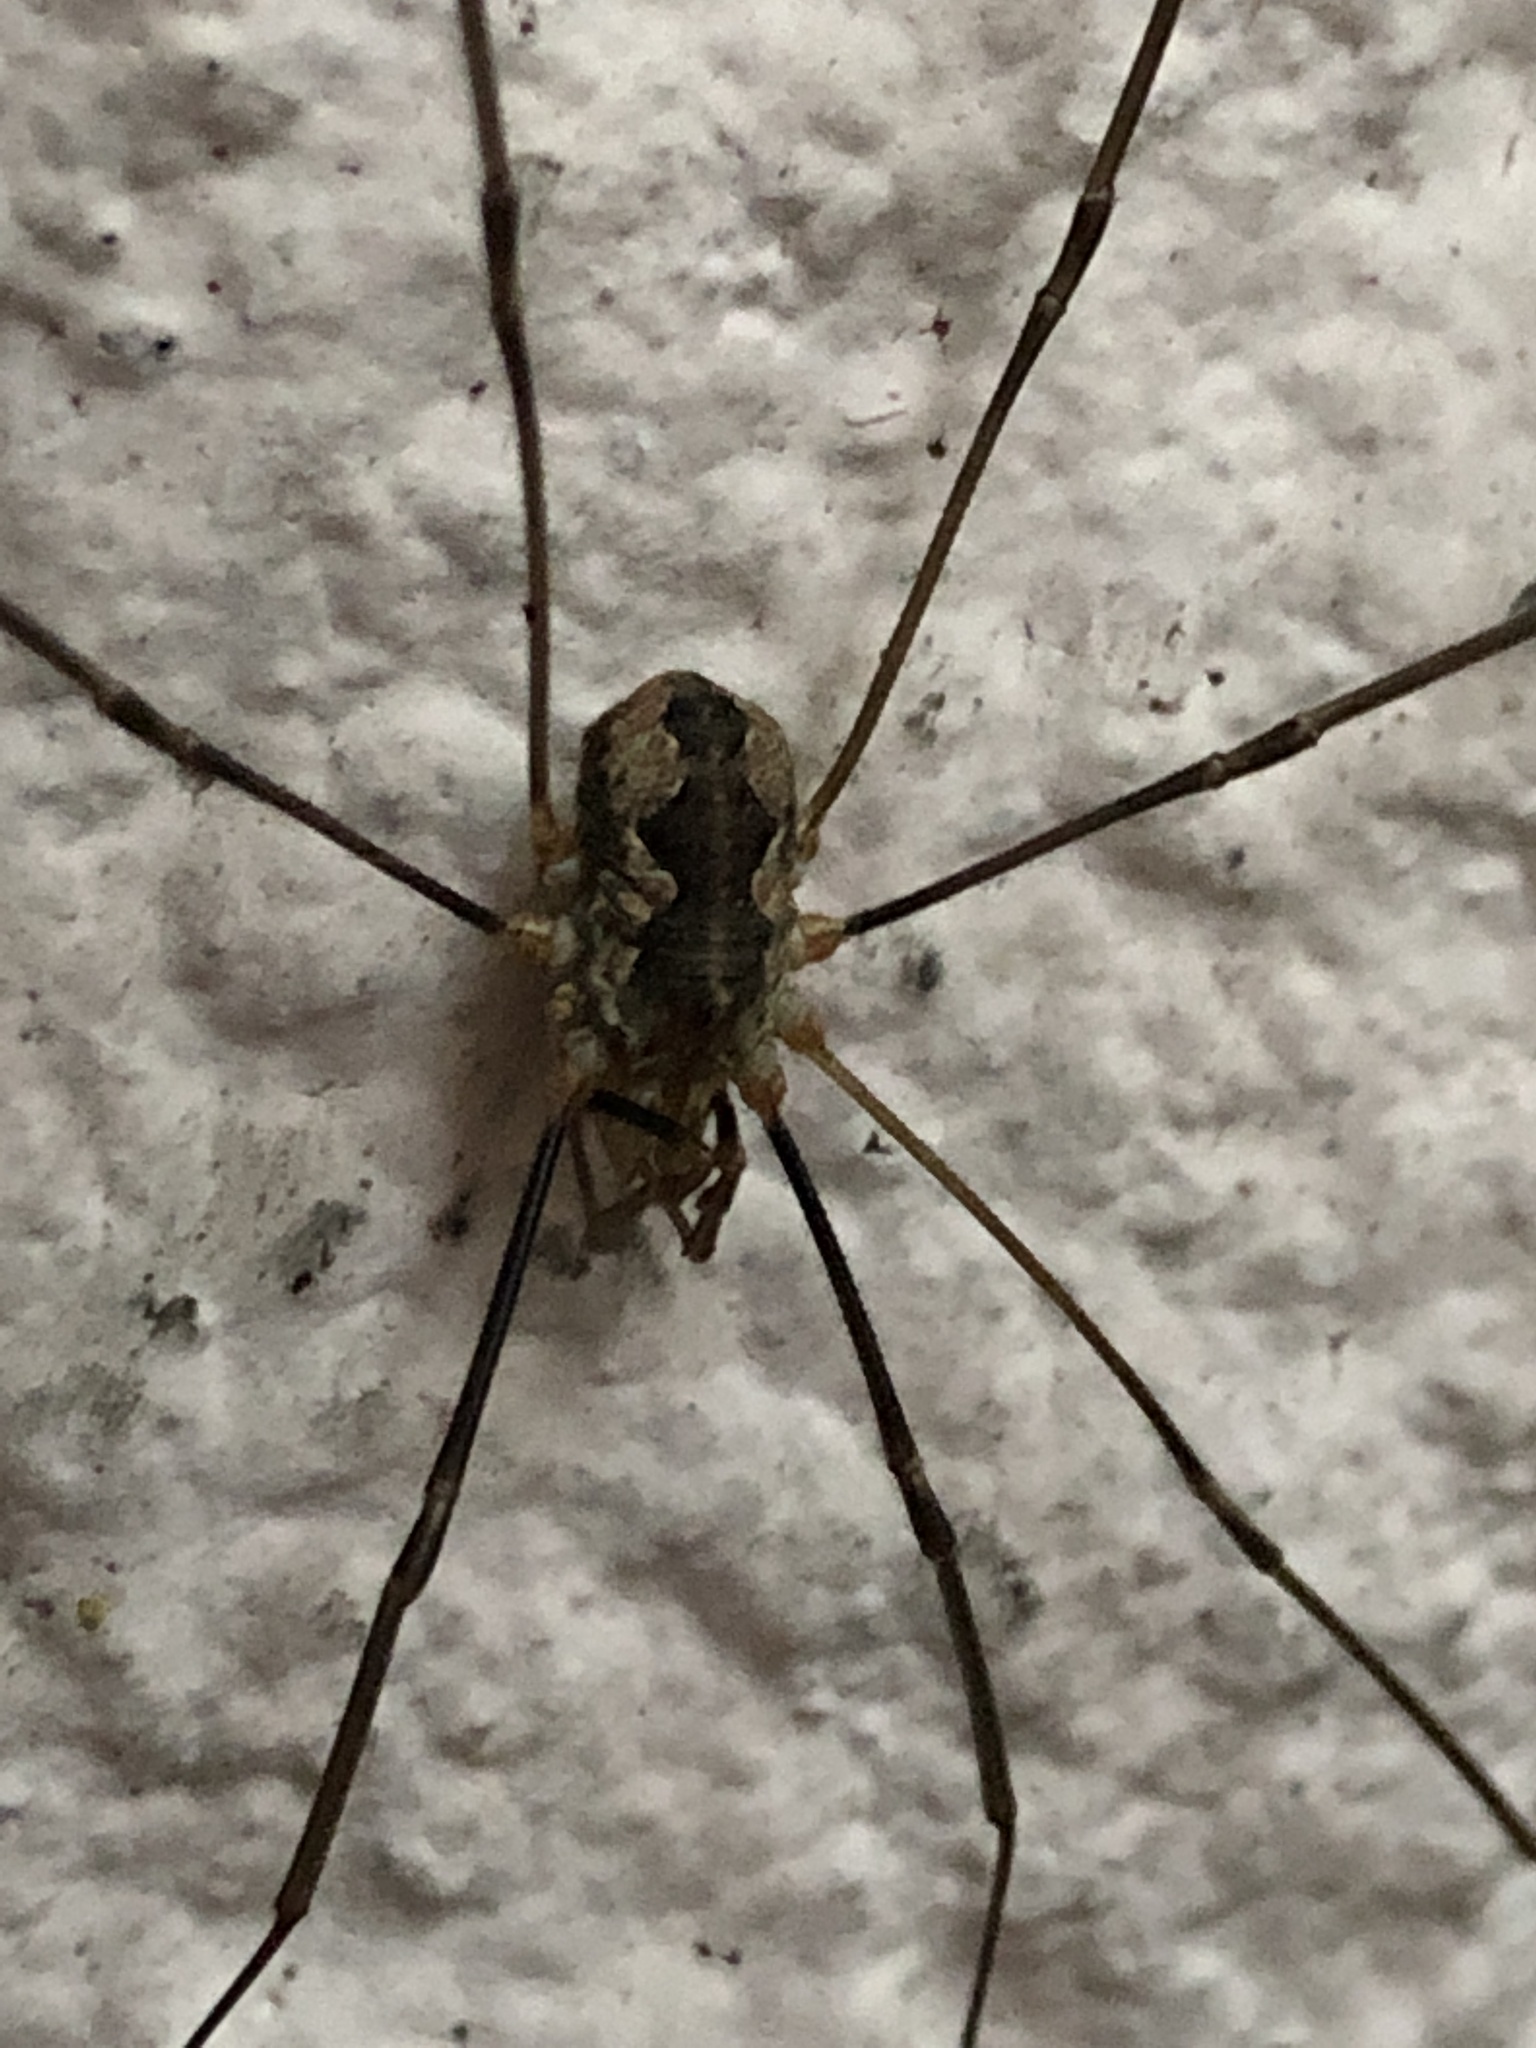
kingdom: Animalia
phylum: Arthropoda
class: Arachnida
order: Opiliones
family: Phalangiidae
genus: Phalangium
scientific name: Phalangium opilio
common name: Daddy longleg
